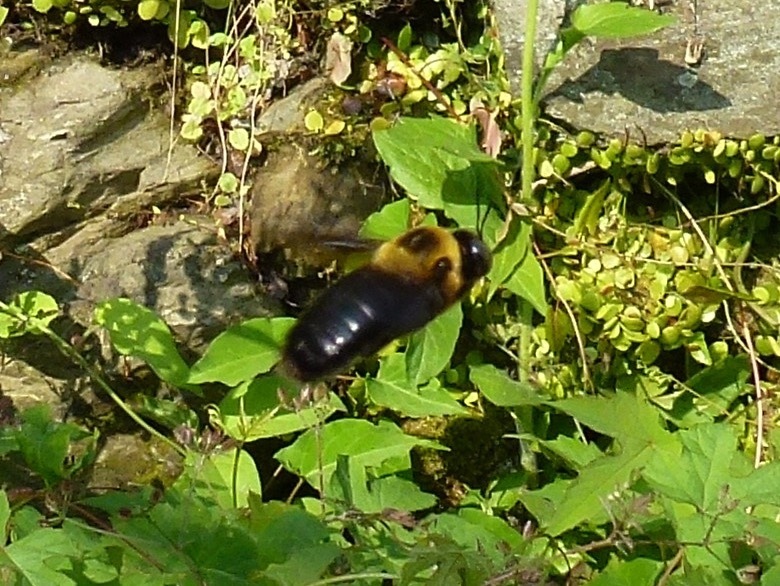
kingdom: Animalia
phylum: Arthropoda
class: Insecta
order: Hymenoptera
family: Apidae
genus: Xylocopa
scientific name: Xylocopa appendiculata
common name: Japanese carpenter bee
